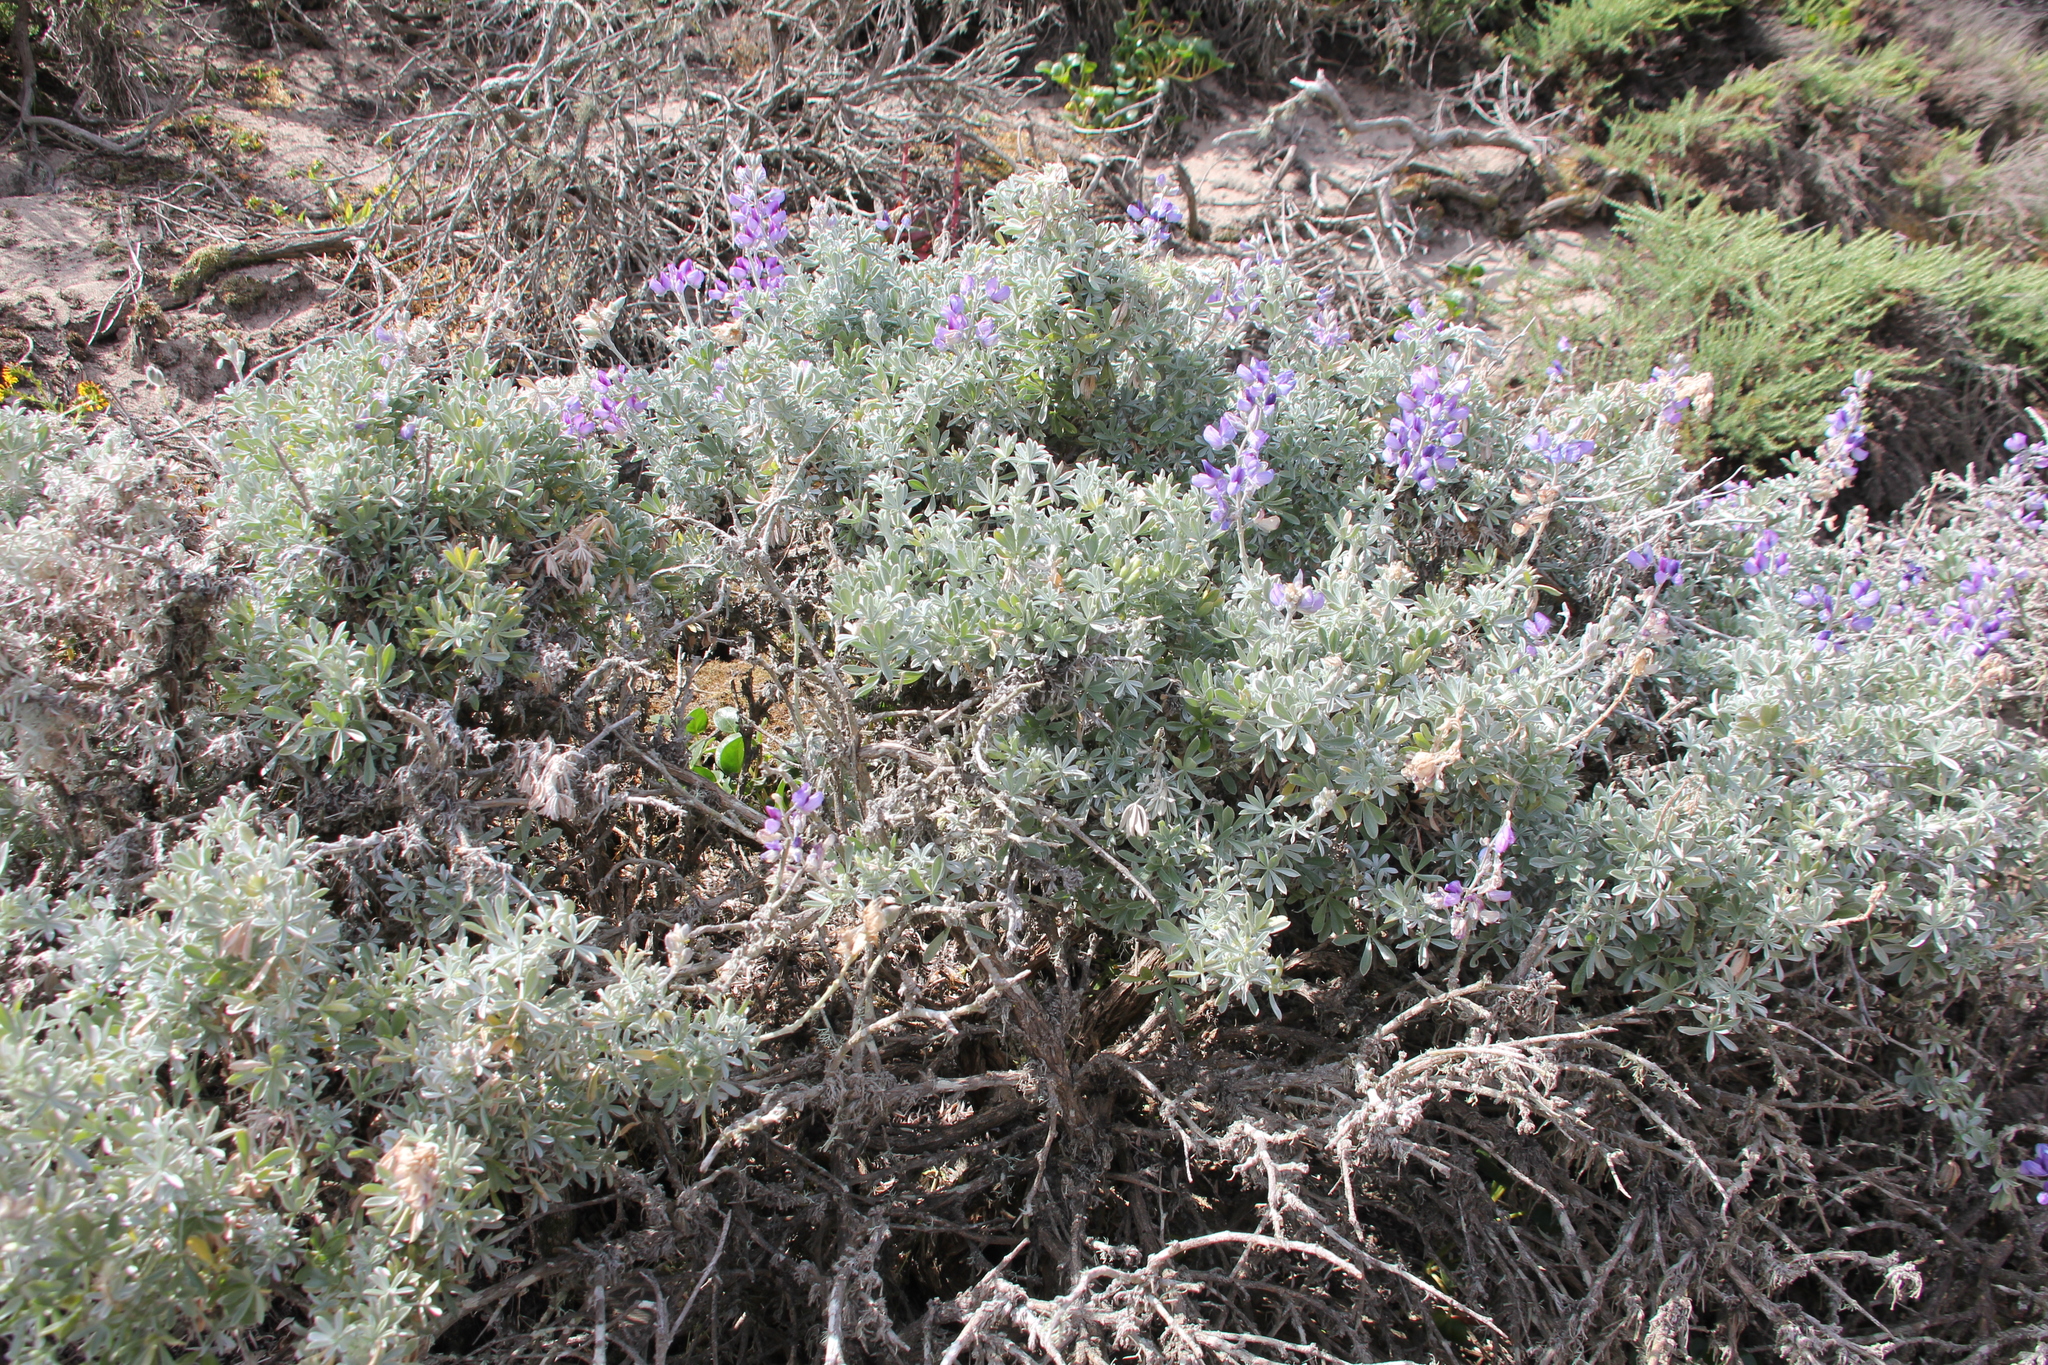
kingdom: Plantae
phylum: Tracheophyta
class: Magnoliopsida
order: Fabales
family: Fabaceae
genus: Lupinus
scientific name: Lupinus chamissonis
